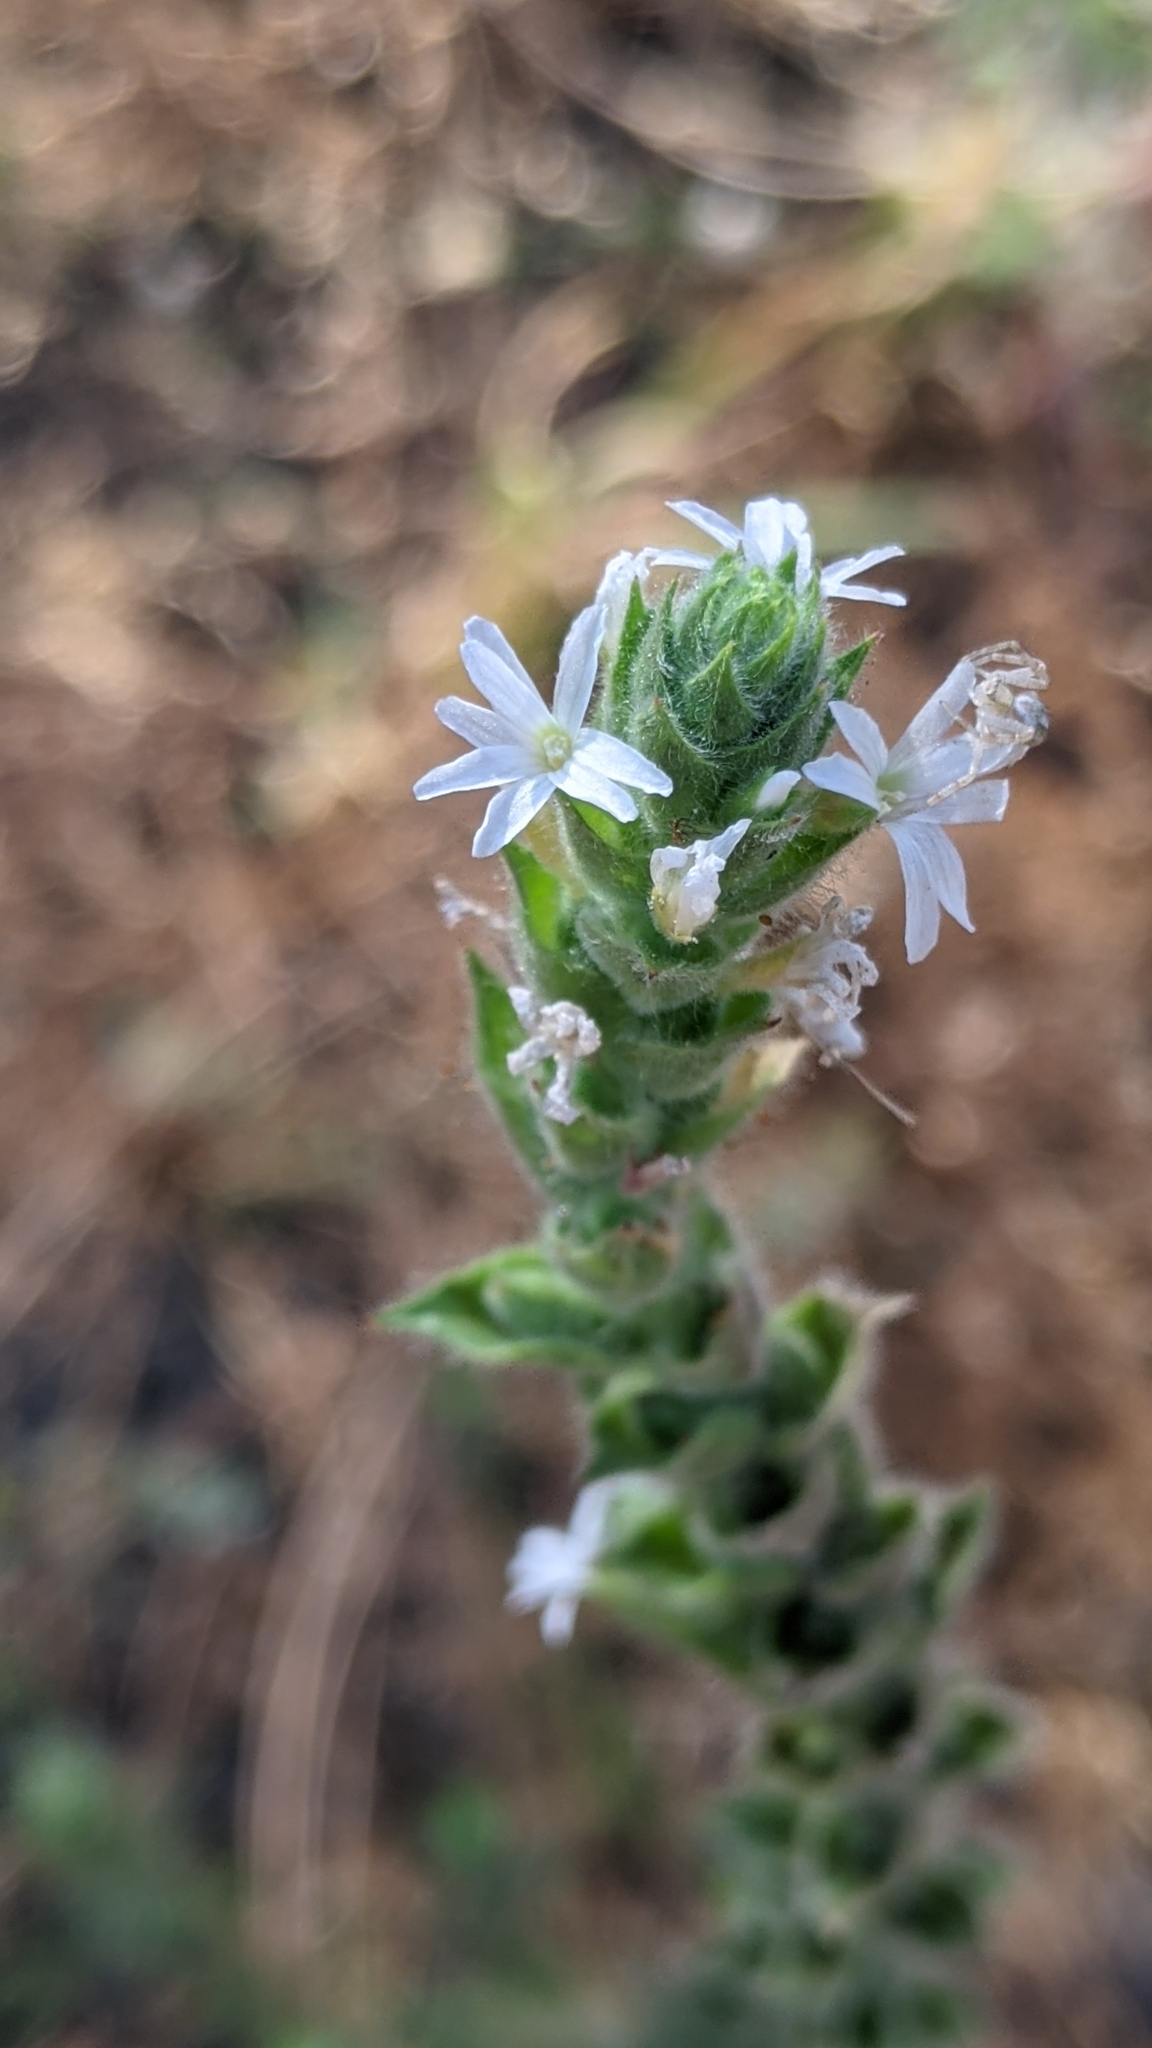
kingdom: Plantae
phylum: Tracheophyta
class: Magnoliopsida
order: Myrtales
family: Onagraceae
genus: Epilobium
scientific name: Epilobium densiflorum
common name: Dense spike-primrose
